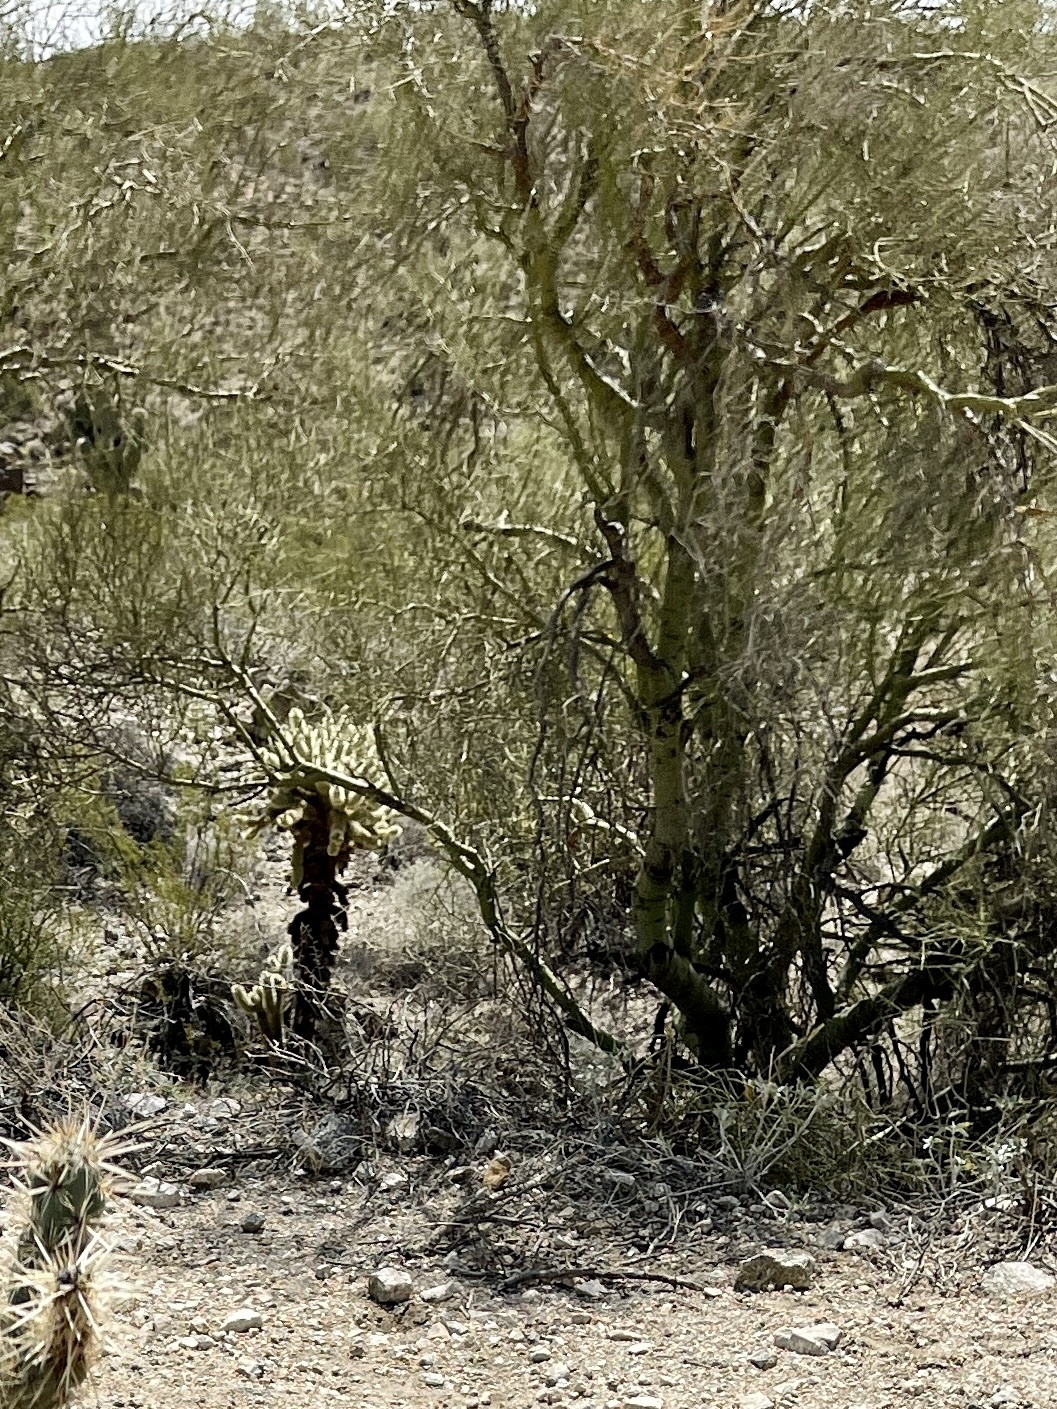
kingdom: Plantae
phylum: Tracheophyta
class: Magnoliopsida
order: Fabales
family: Fabaceae
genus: Parkinsonia
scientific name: Parkinsonia microphylla
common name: Yellow paloverde
